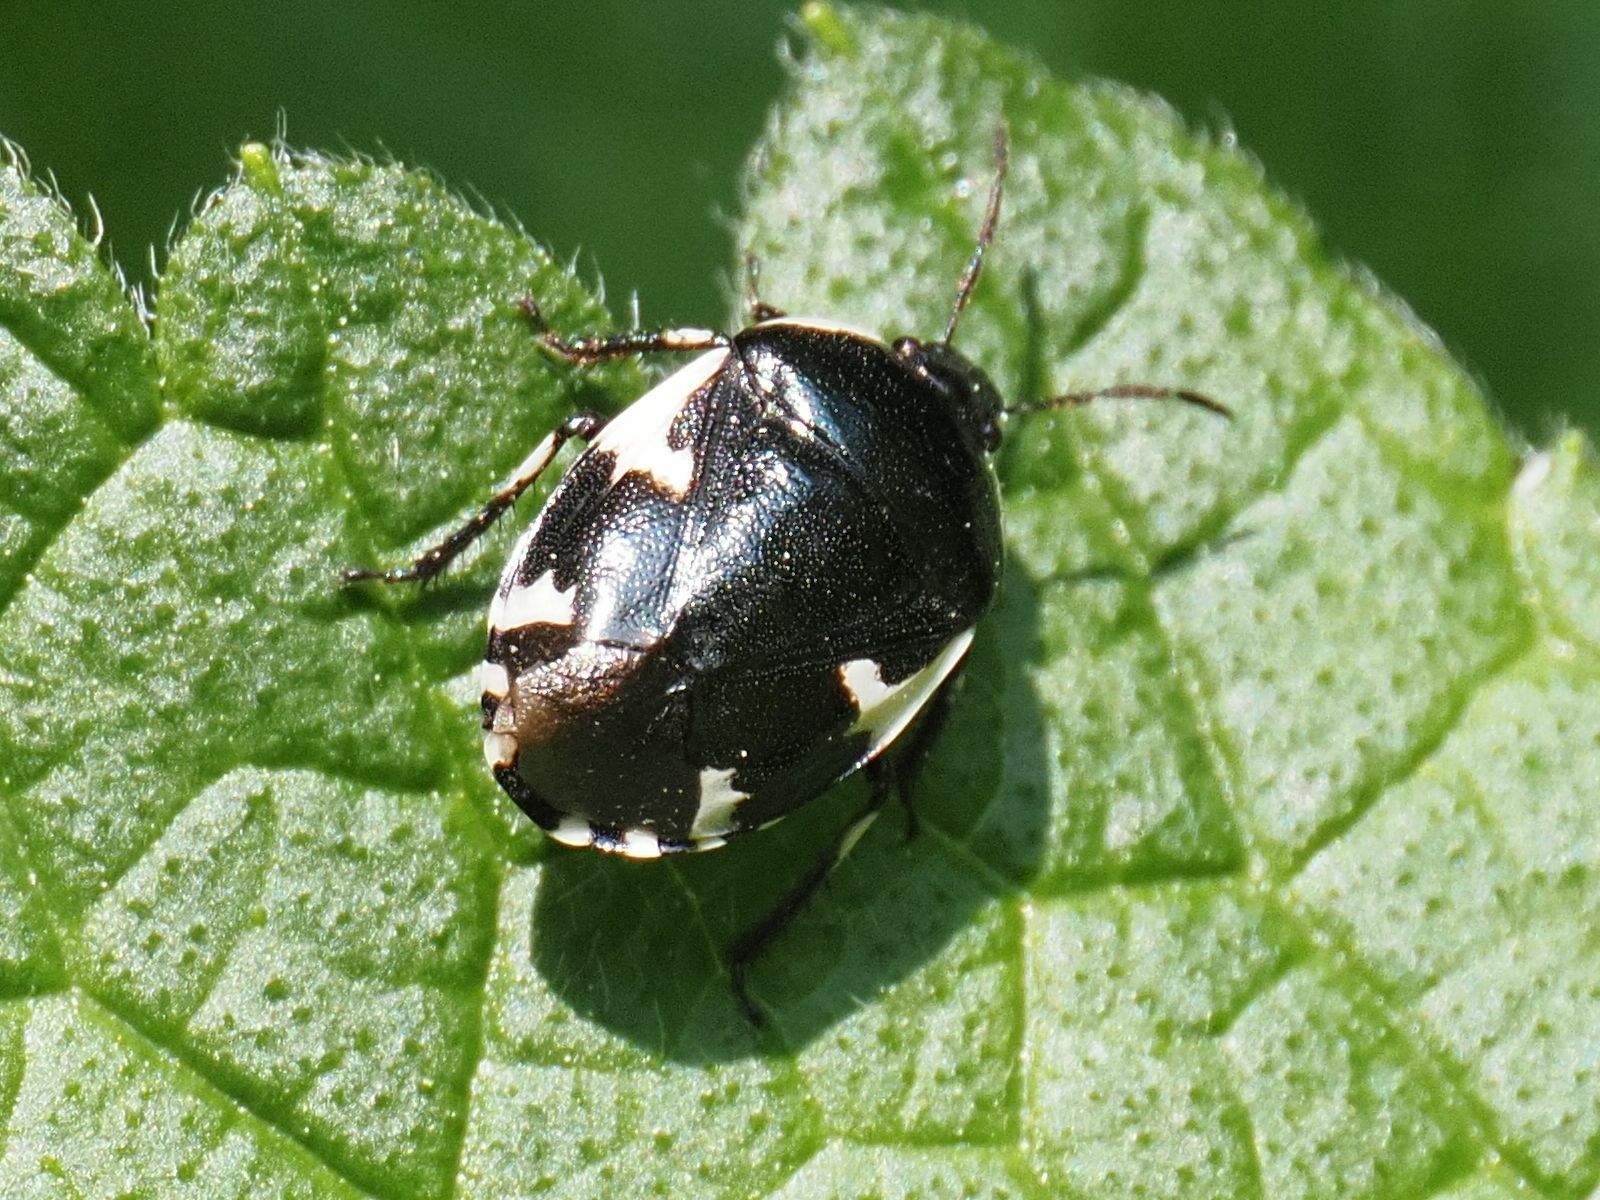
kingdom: Animalia
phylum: Arthropoda
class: Insecta
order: Hemiptera
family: Cydnidae
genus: Tritomegas
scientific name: Tritomegas sexmaculatus
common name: Rambur's pied shieldbug
